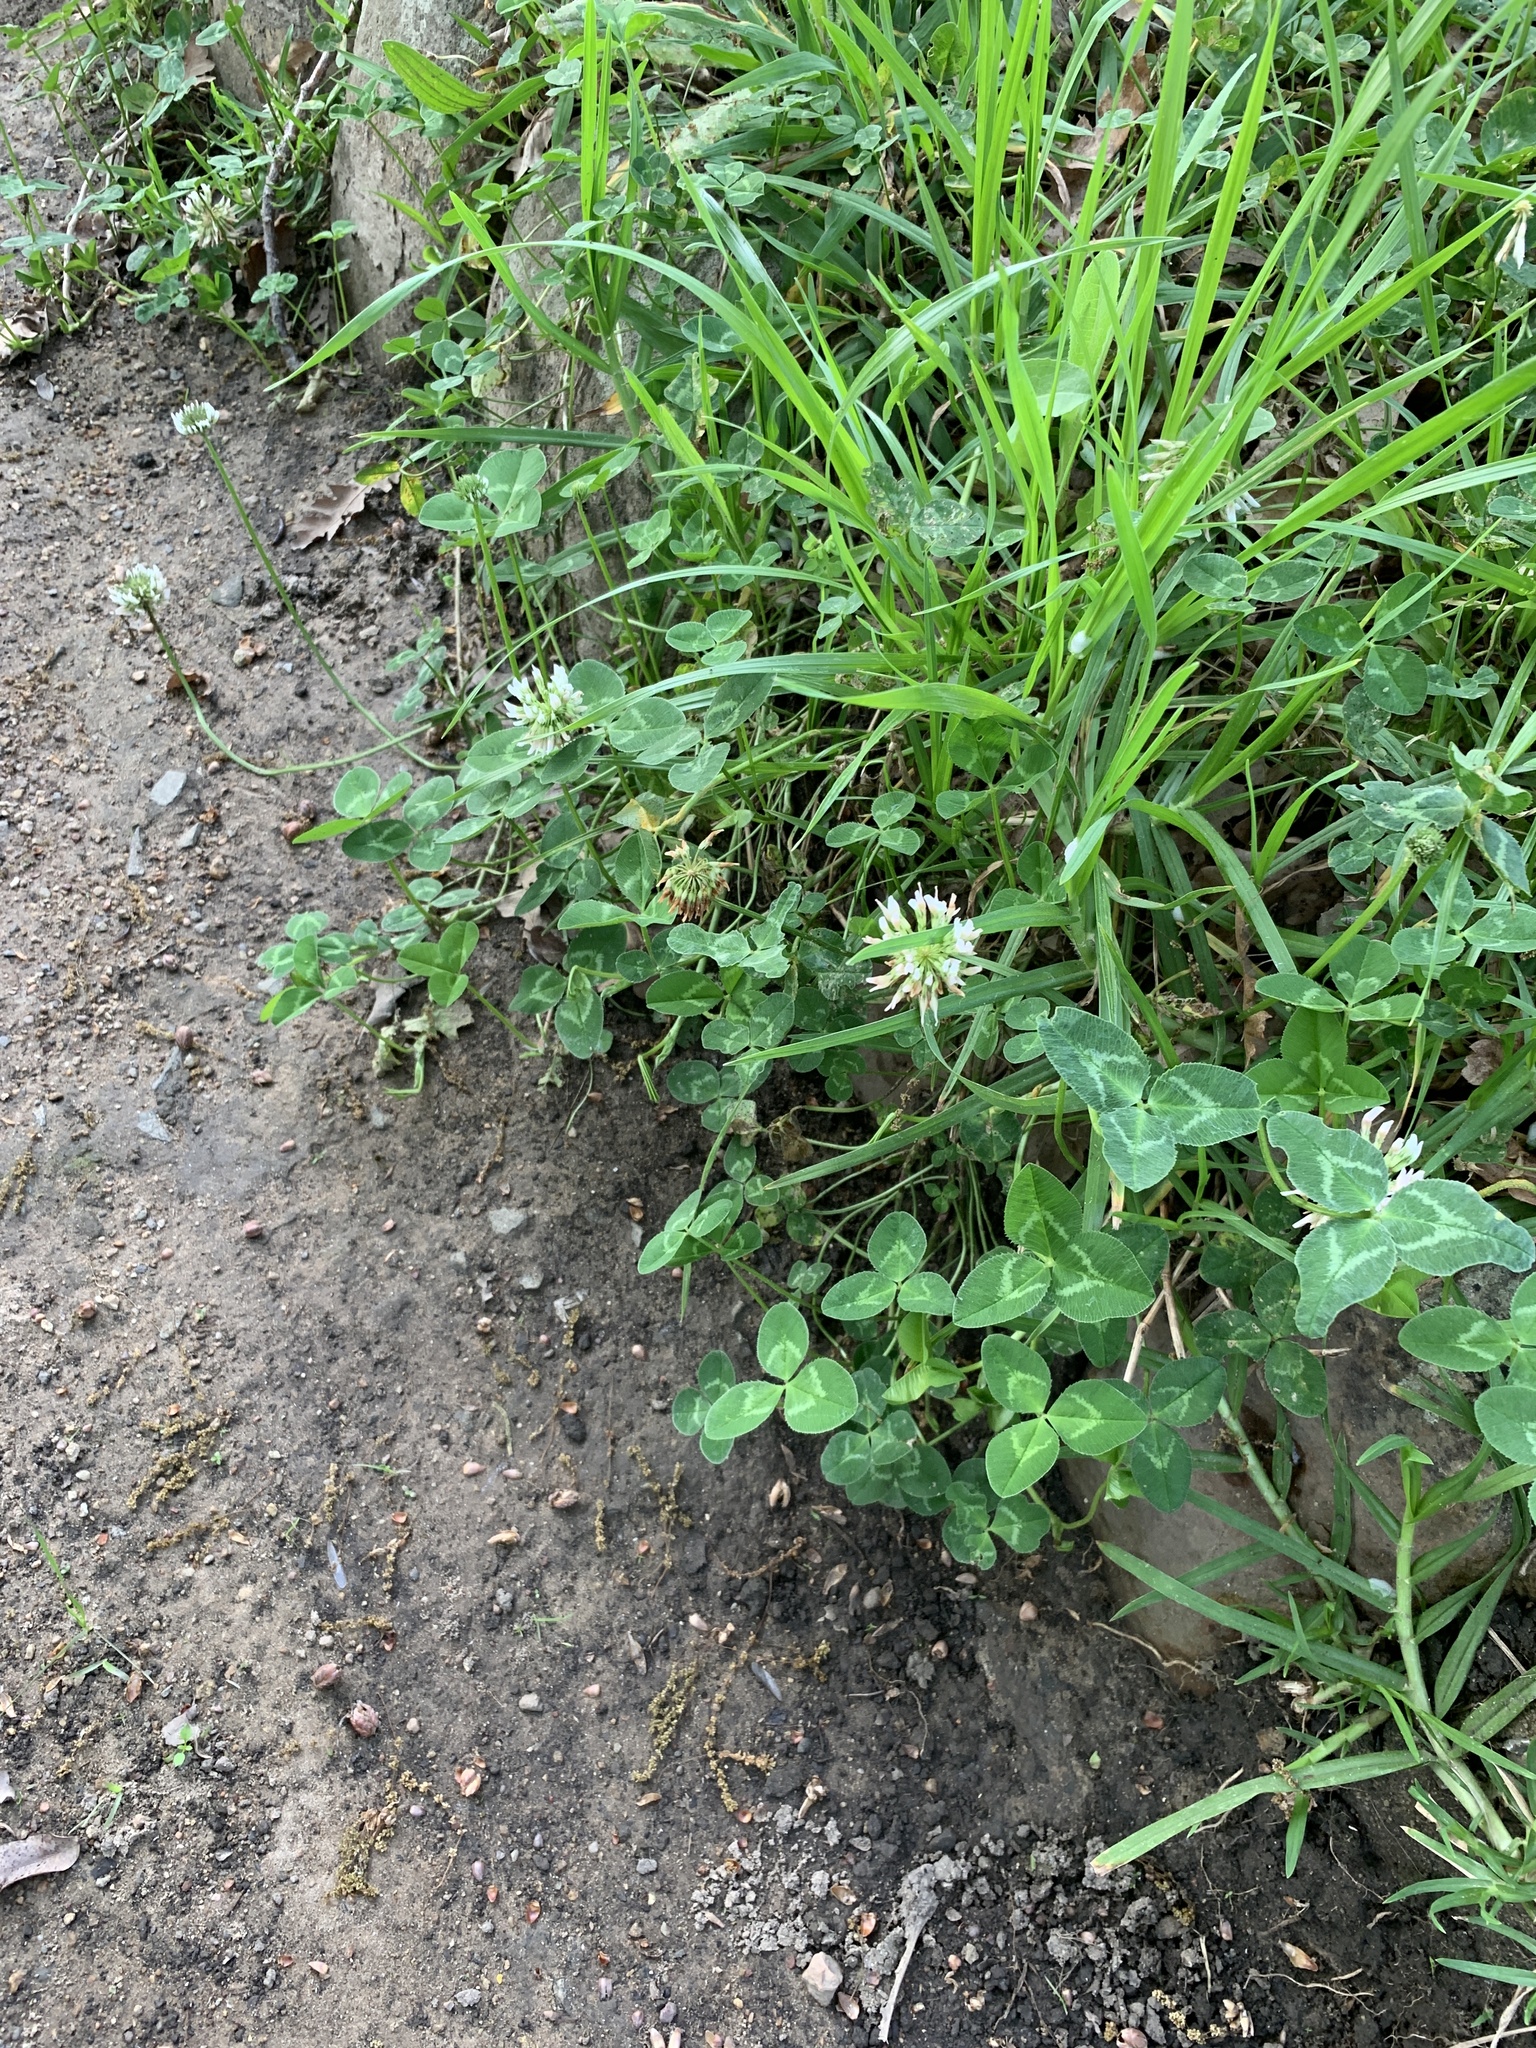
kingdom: Plantae
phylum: Tracheophyta
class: Magnoliopsida
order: Fabales
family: Fabaceae
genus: Trifolium
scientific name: Trifolium repens
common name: White clover
